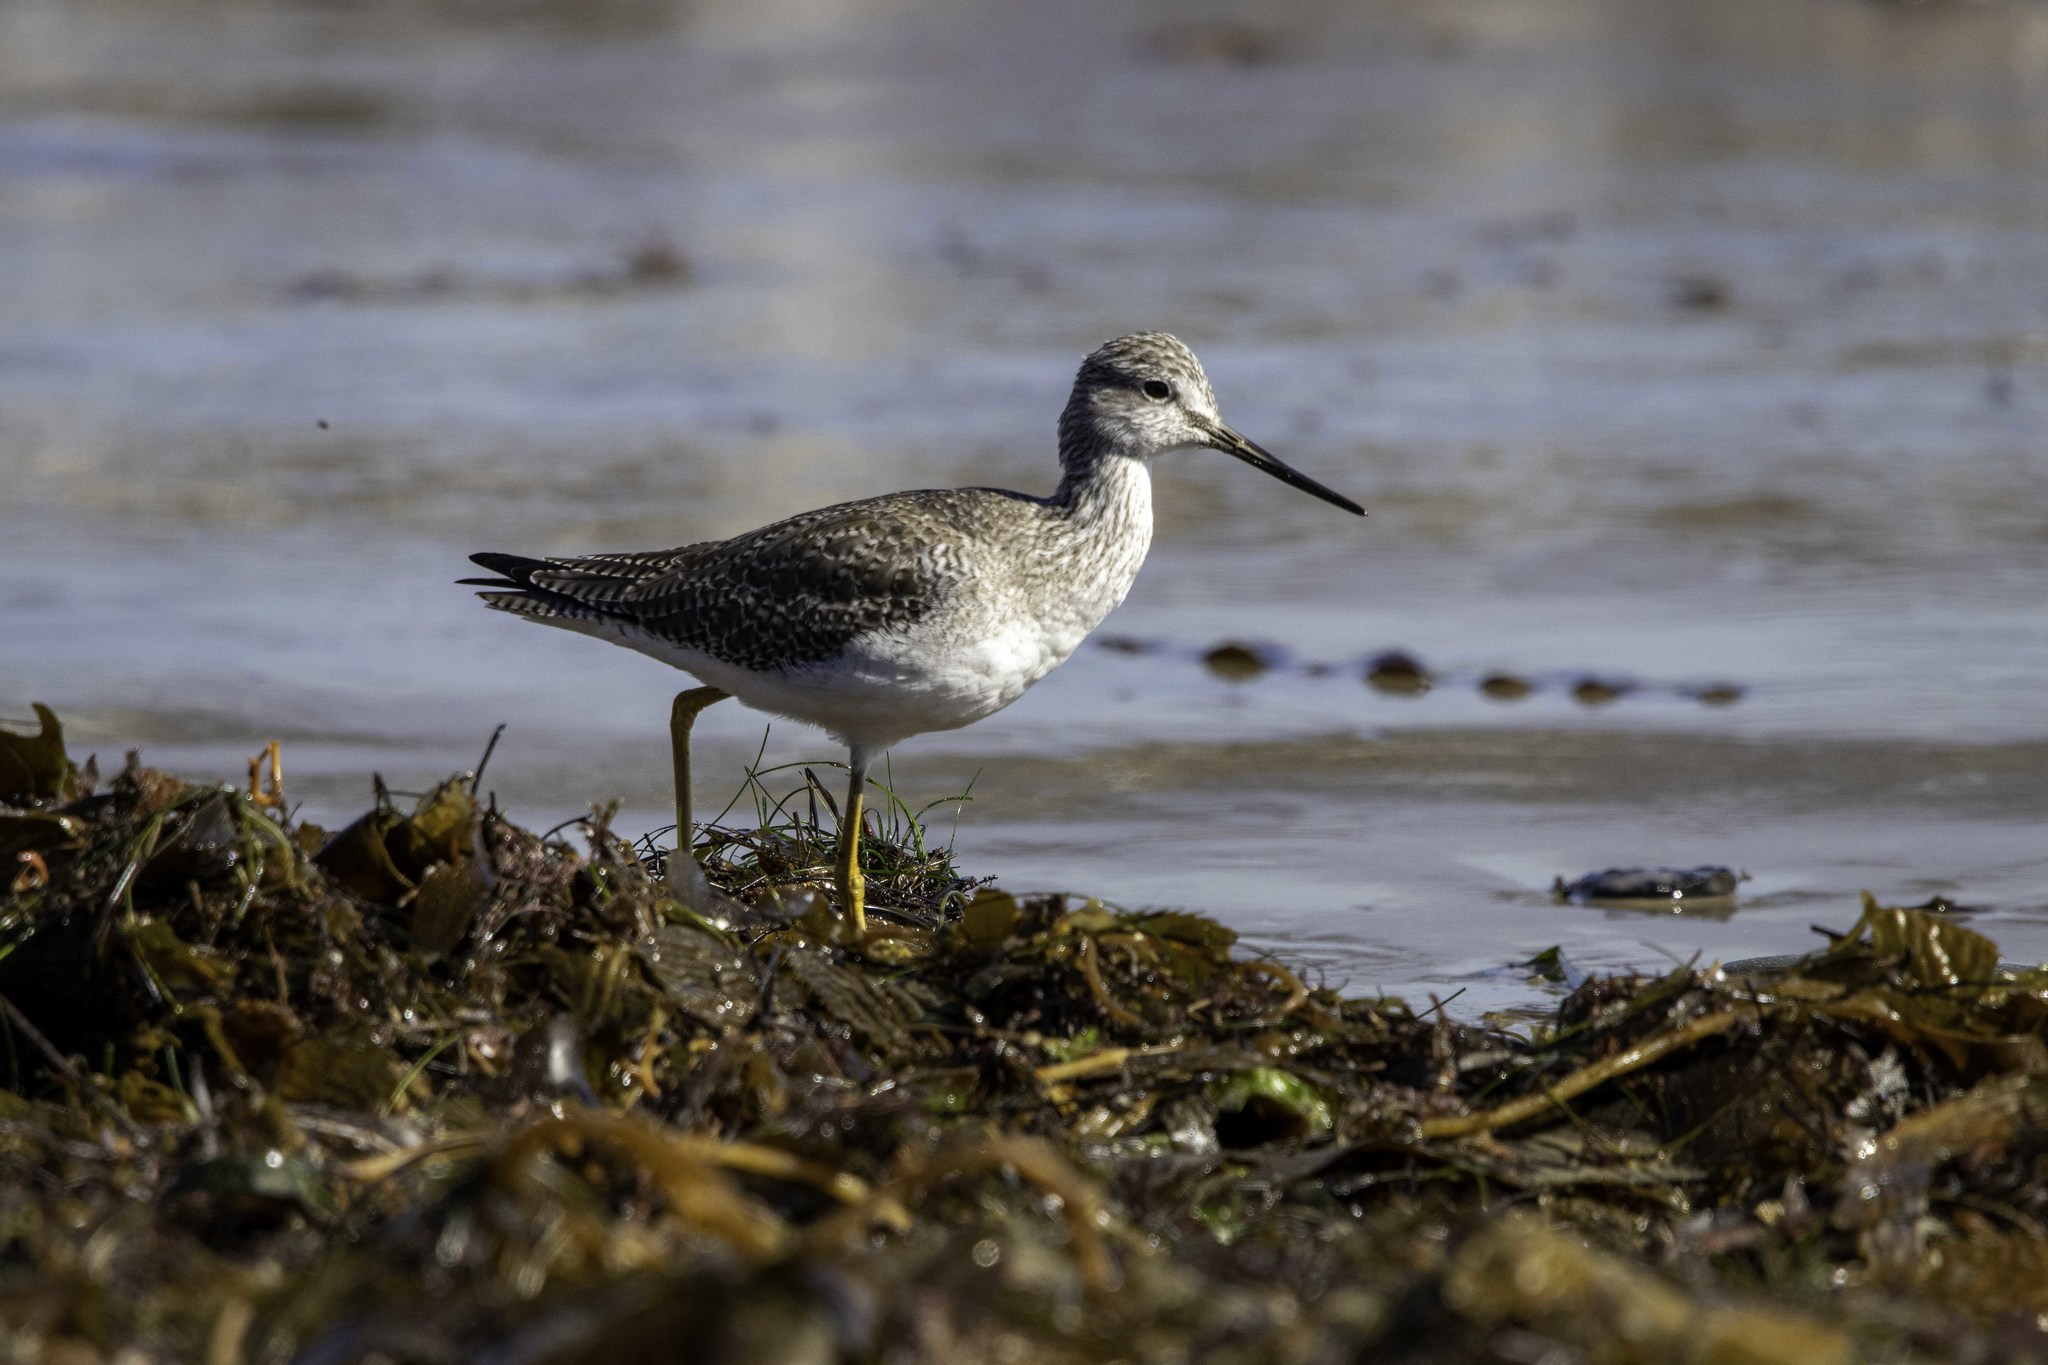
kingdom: Animalia
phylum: Chordata
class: Aves
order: Charadriiformes
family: Scolopacidae
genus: Tringa
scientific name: Tringa melanoleuca
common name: Greater yellowlegs
